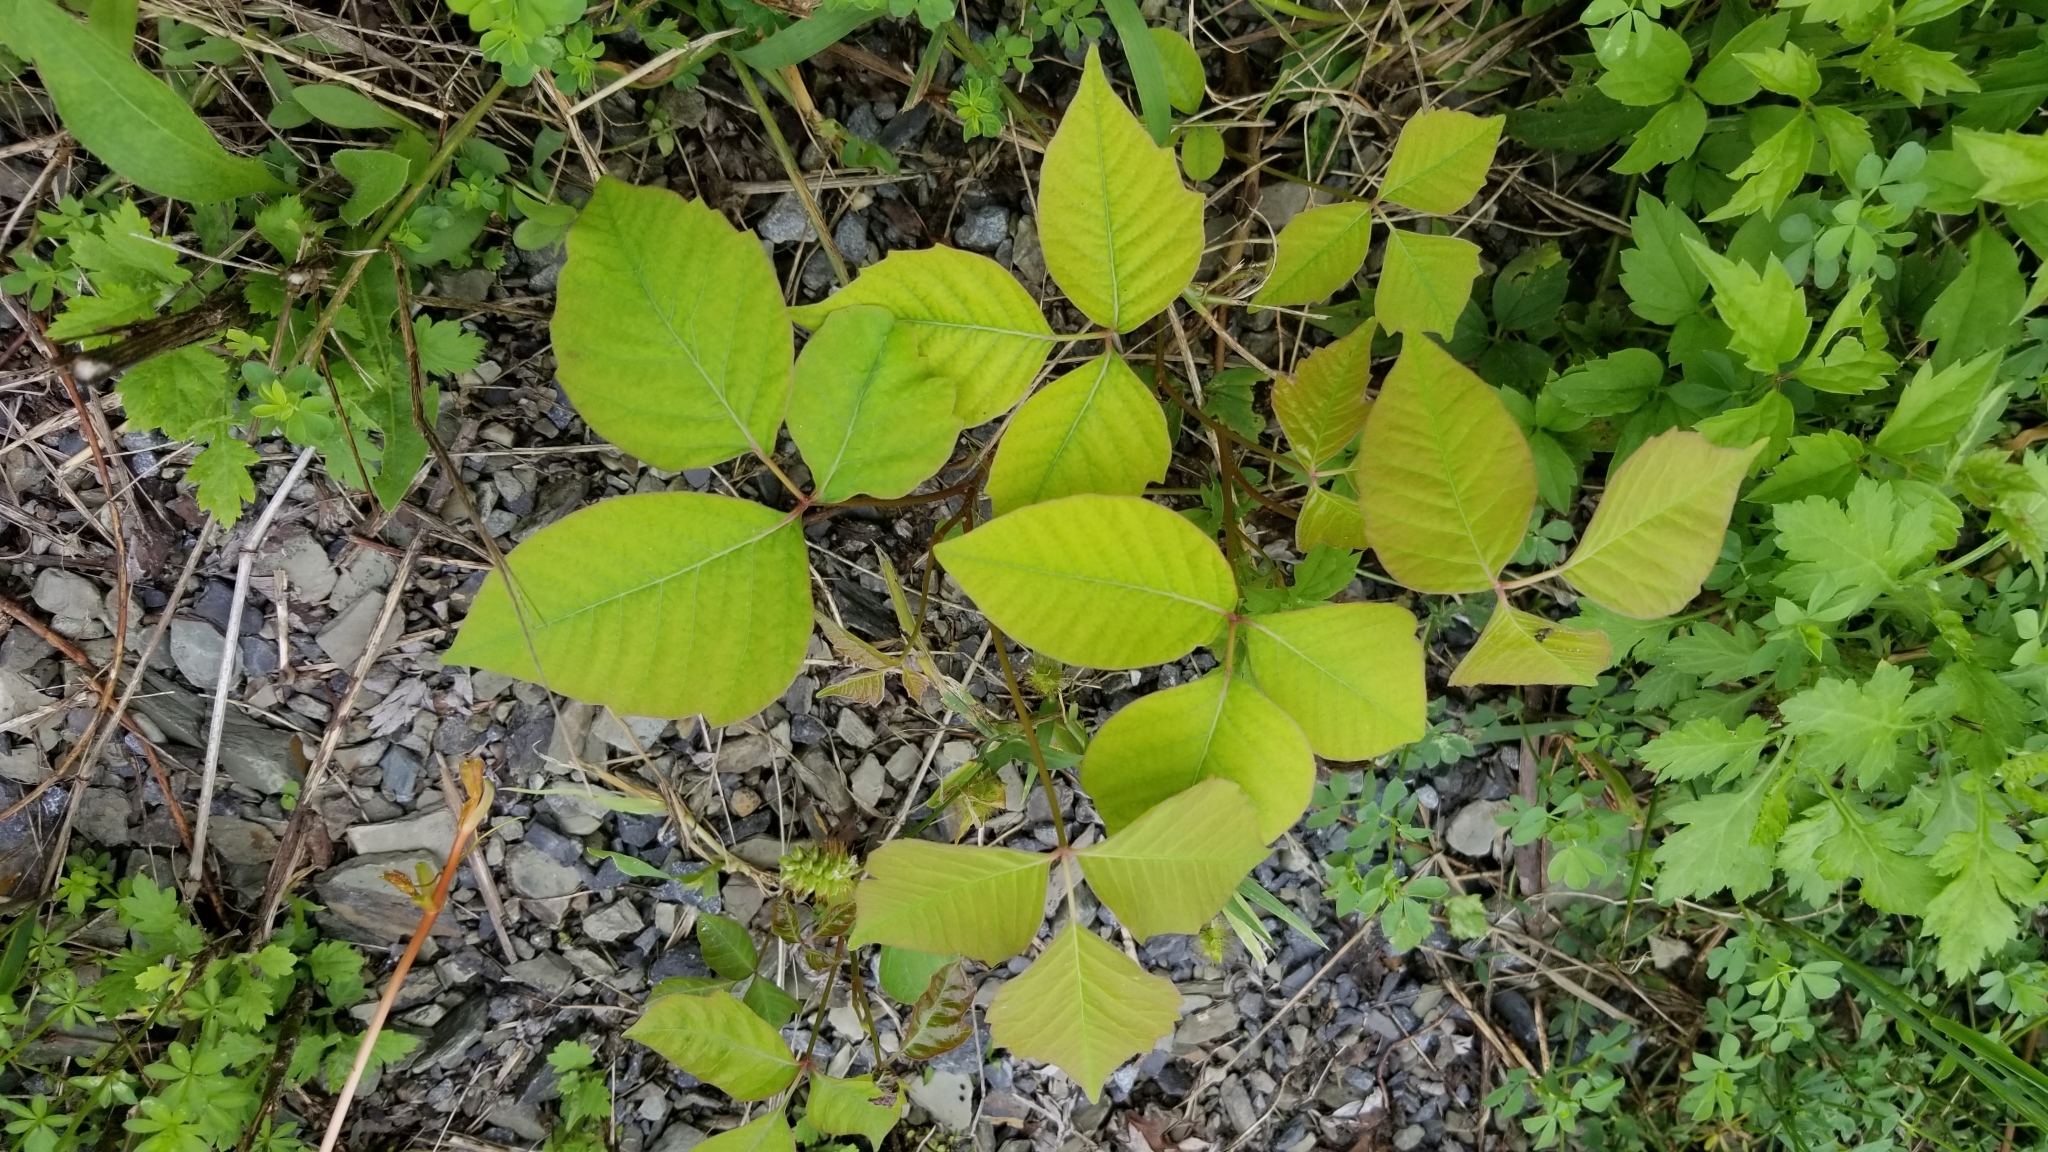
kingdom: Plantae
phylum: Tracheophyta
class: Magnoliopsida
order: Sapindales
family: Anacardiaceae
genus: Toxicodendron
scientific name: Toxicodendron radicans
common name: Poison ivy
